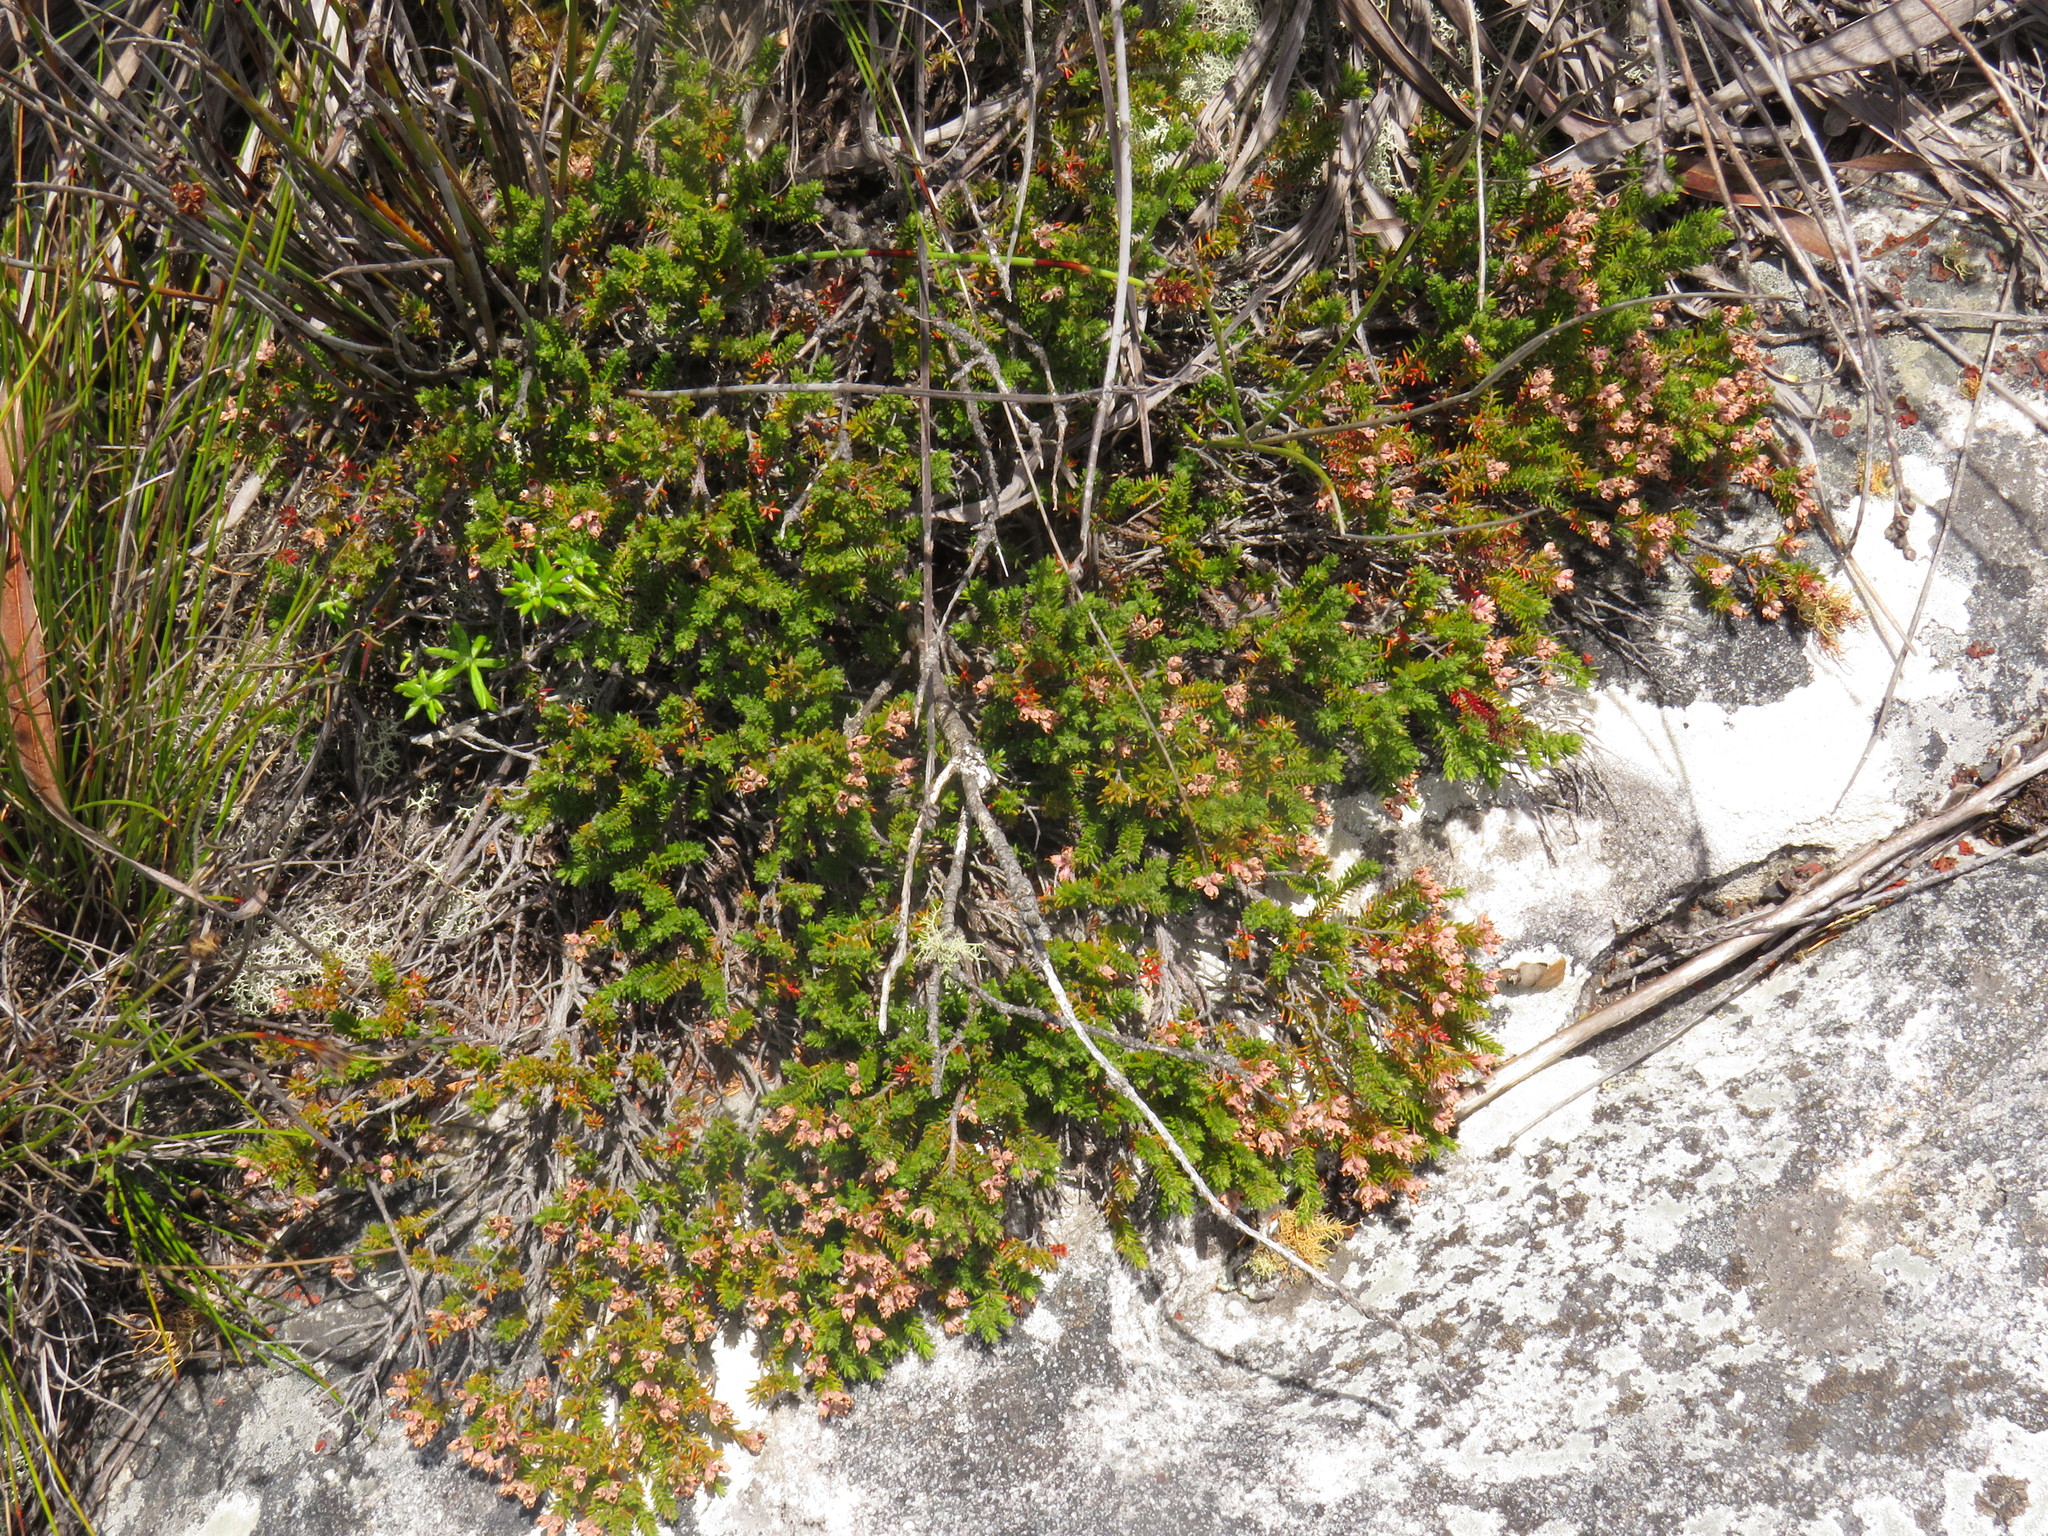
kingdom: Plantae
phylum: Tracheophyta
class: Magnoliopsida
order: Ericales
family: Ericaceae
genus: Erica
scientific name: Erica diosmifolia
